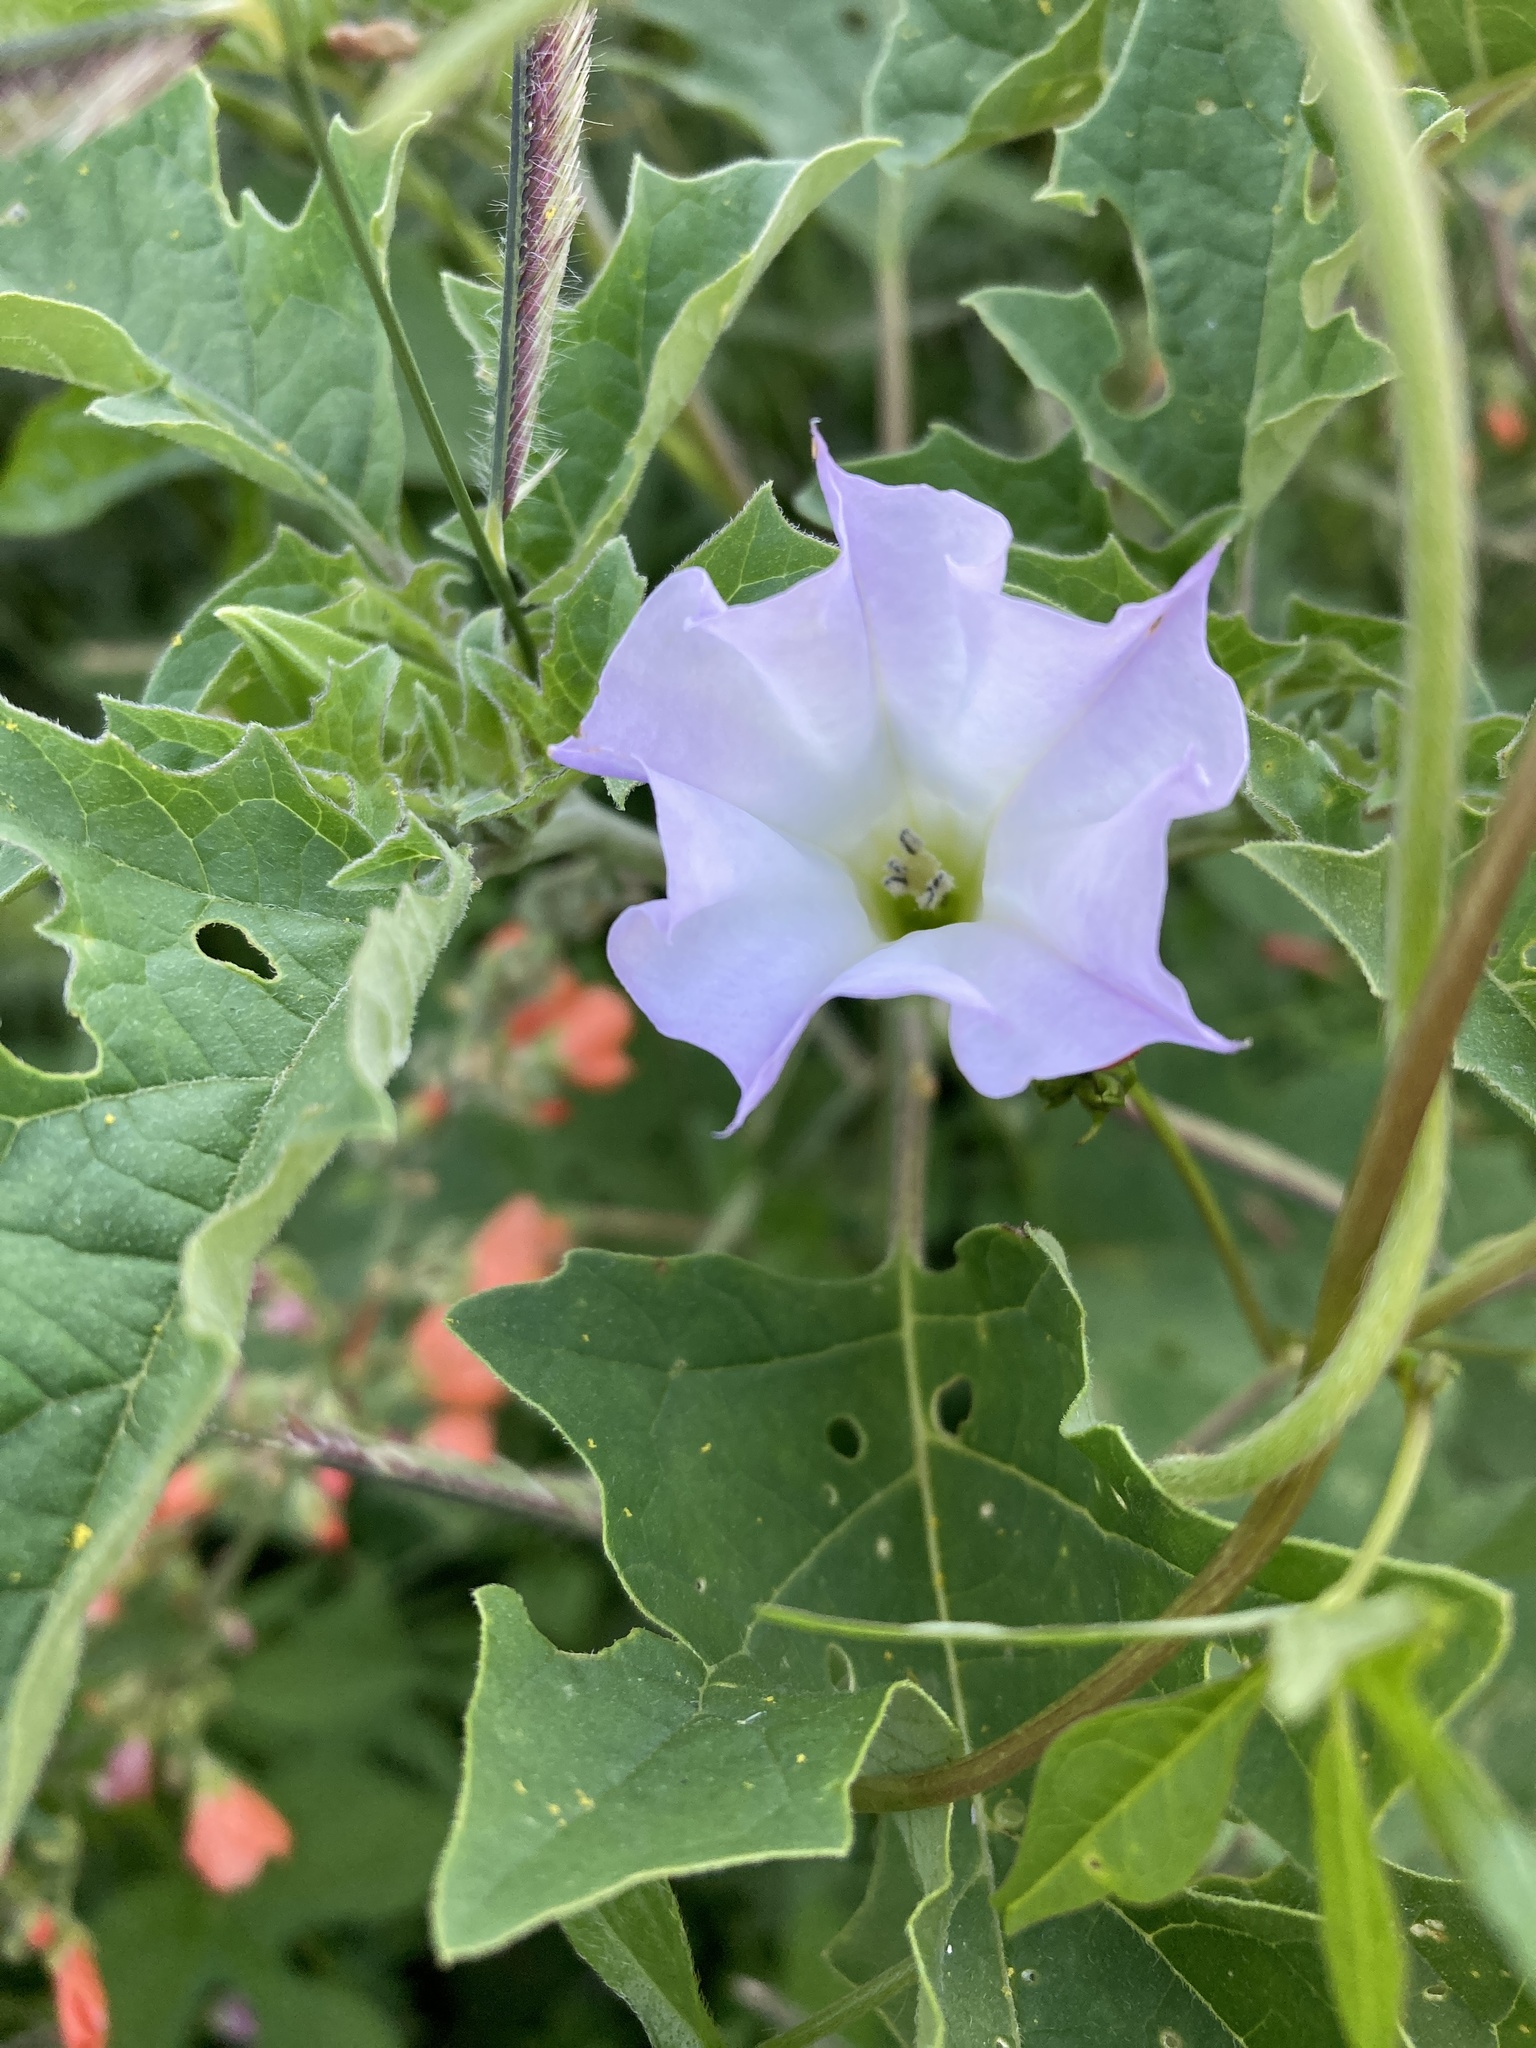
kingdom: Plantae
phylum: Tracheophyta
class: Magnoliopsida
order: Solanales
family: Solanaceae
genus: Datura
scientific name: Datura quercifolia
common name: Oak-leaf datura
